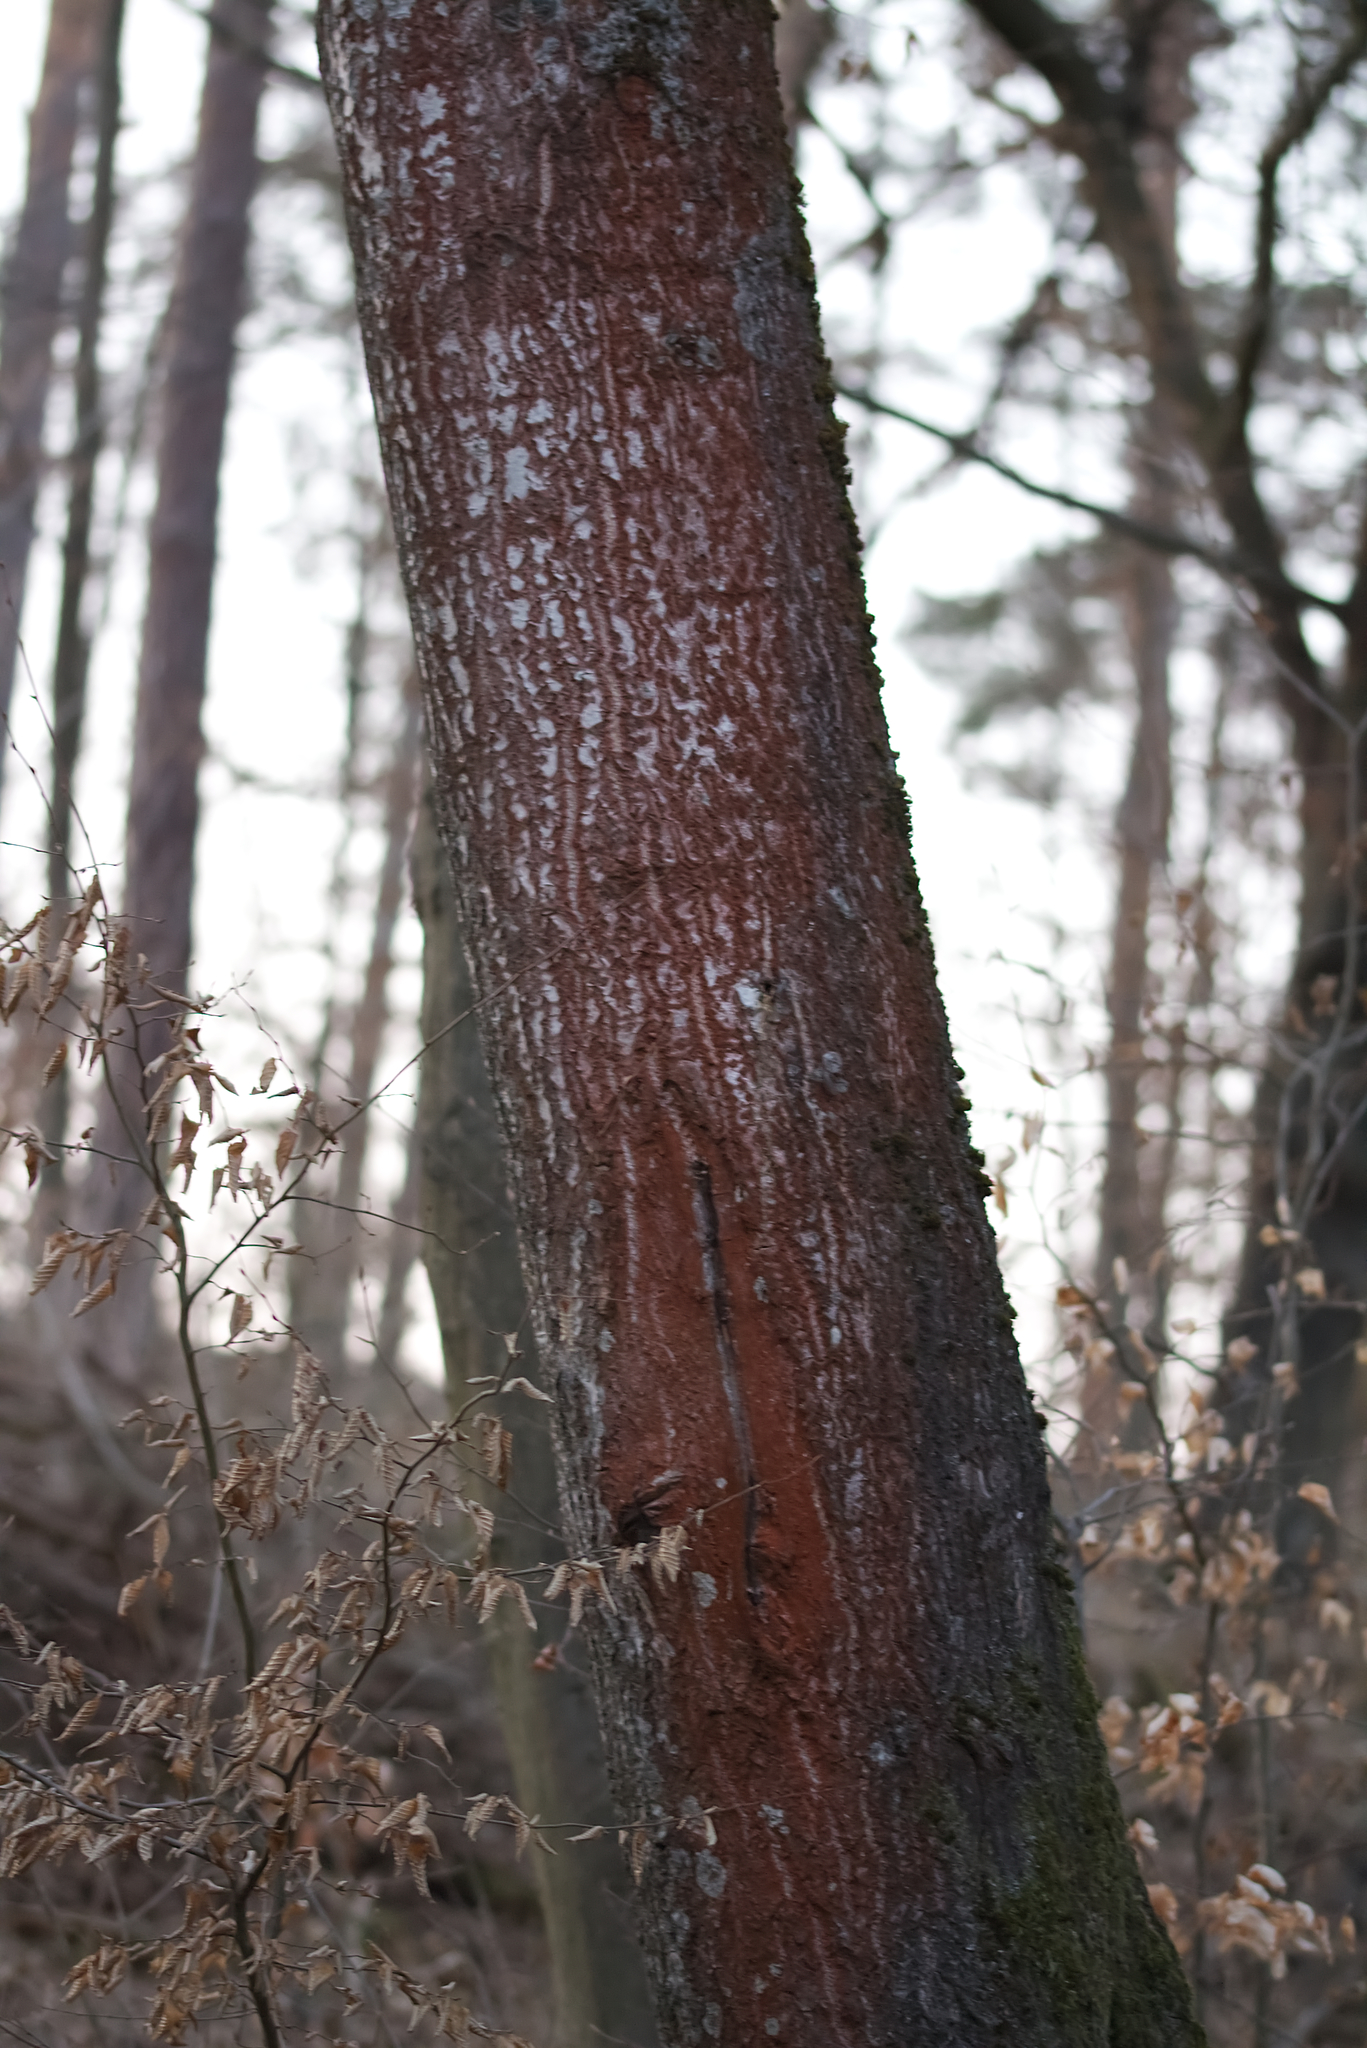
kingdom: Plantae
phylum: Tracheophyta
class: Magnoliopsida
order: Malpighiales
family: Salicaceae
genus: Populus
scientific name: Populus tremula
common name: European aspen
